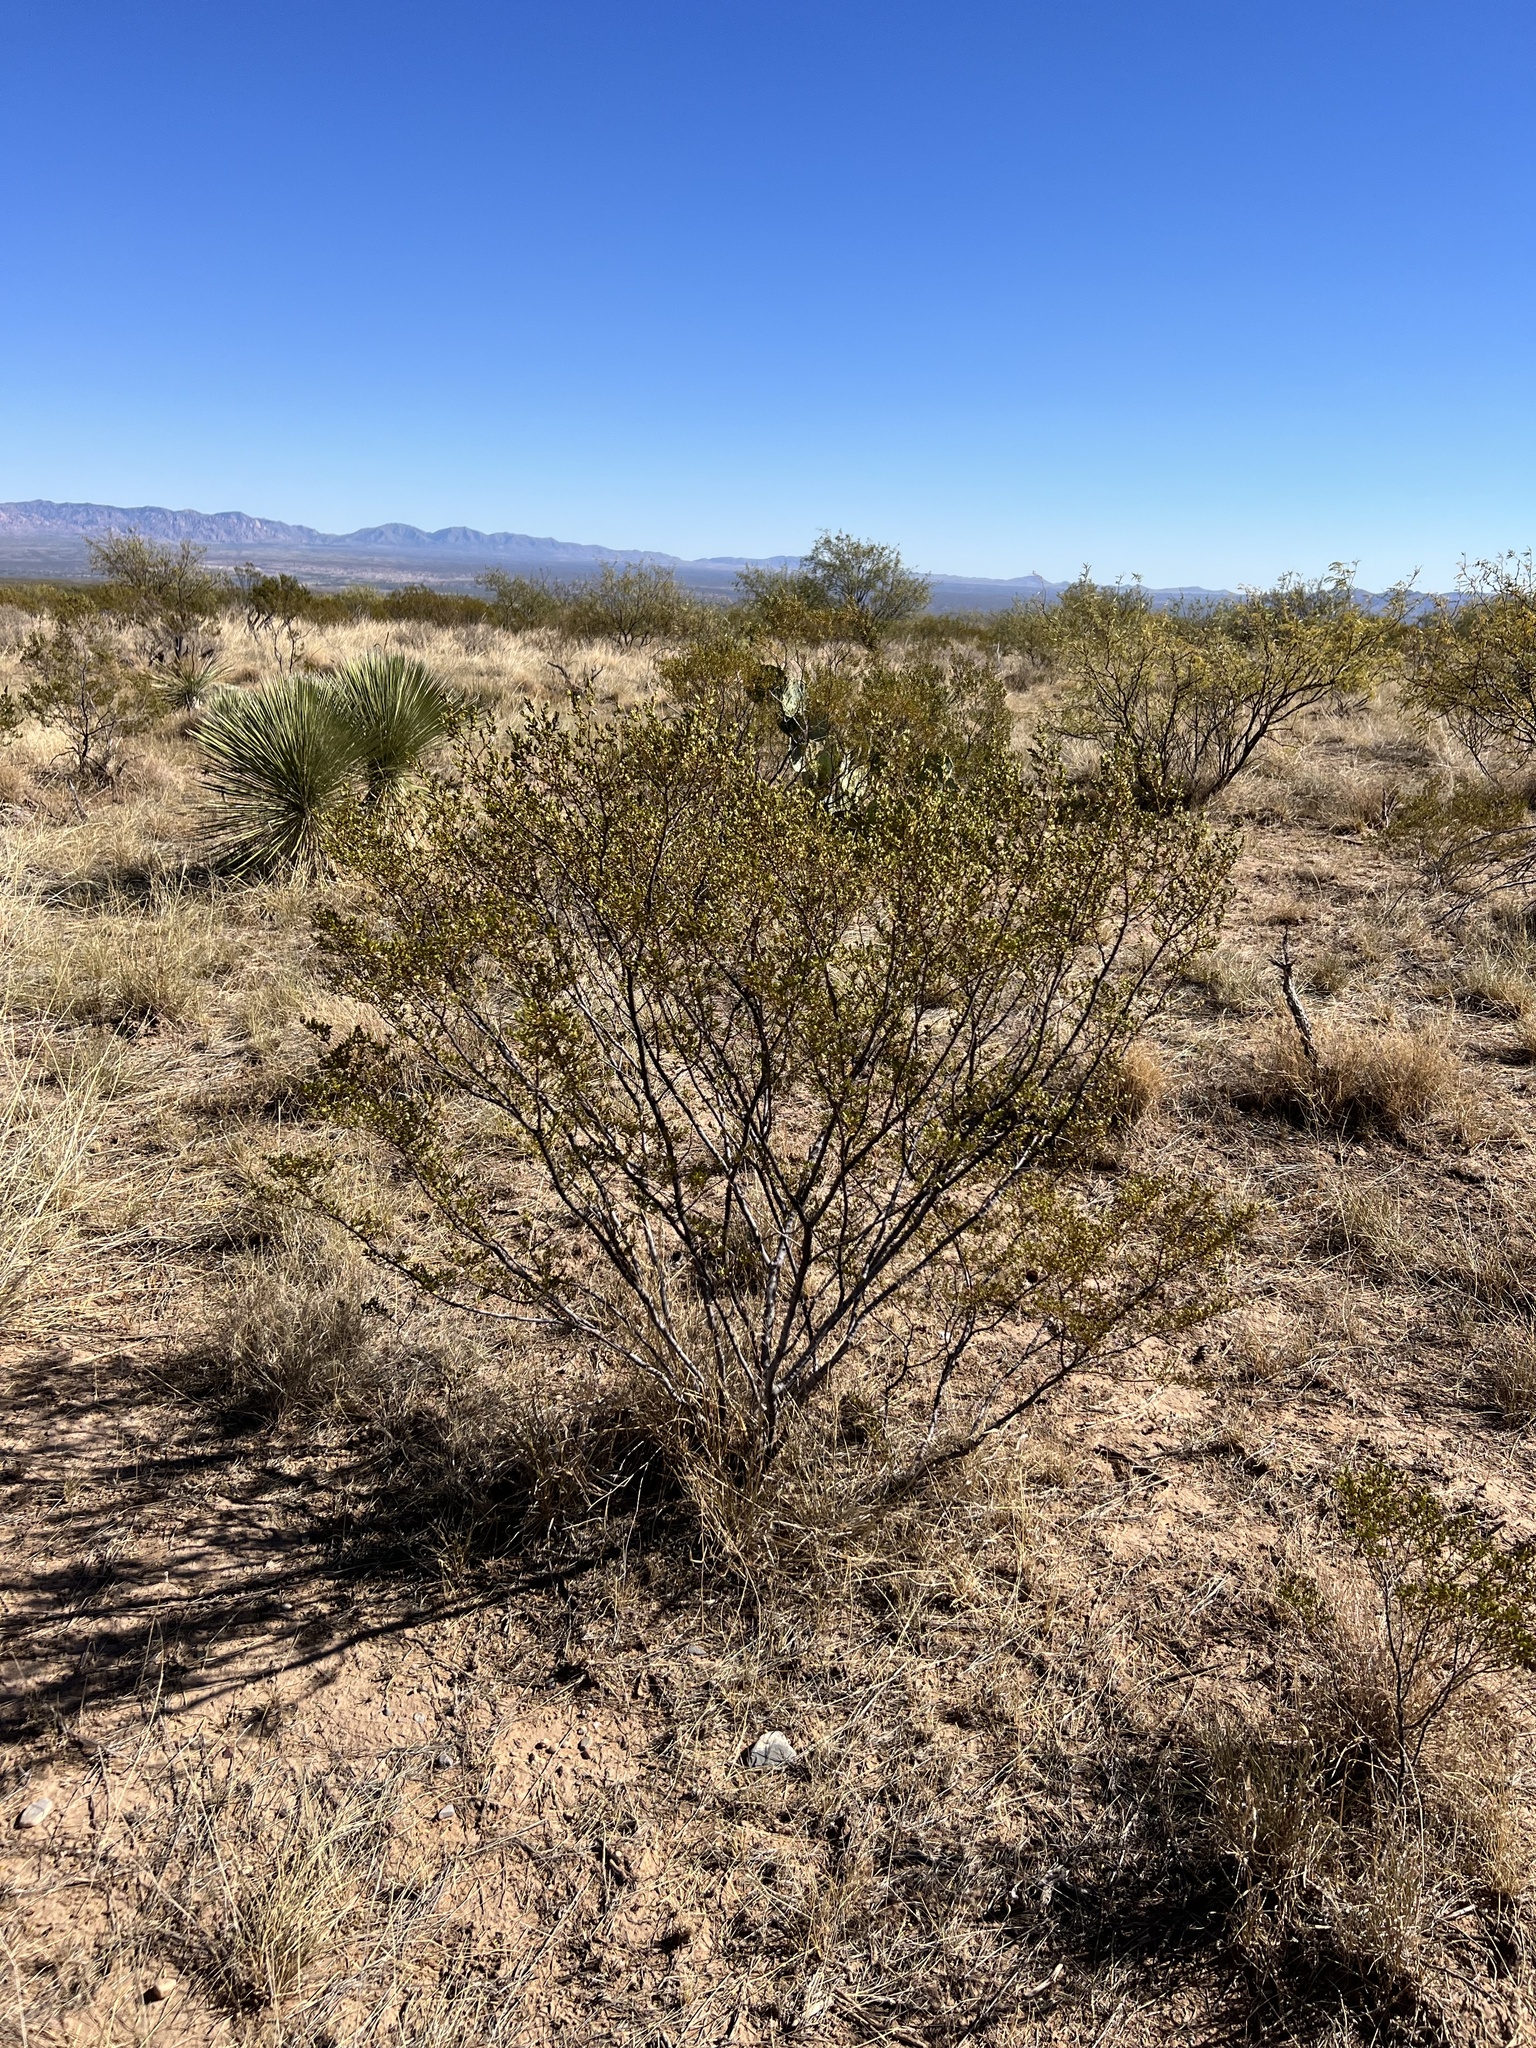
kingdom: Plantae
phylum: Tracheophyta
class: Magnoliopsida
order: Zygophyllales
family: Zygophyllaceae
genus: Larrea
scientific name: Larrea tridentata
